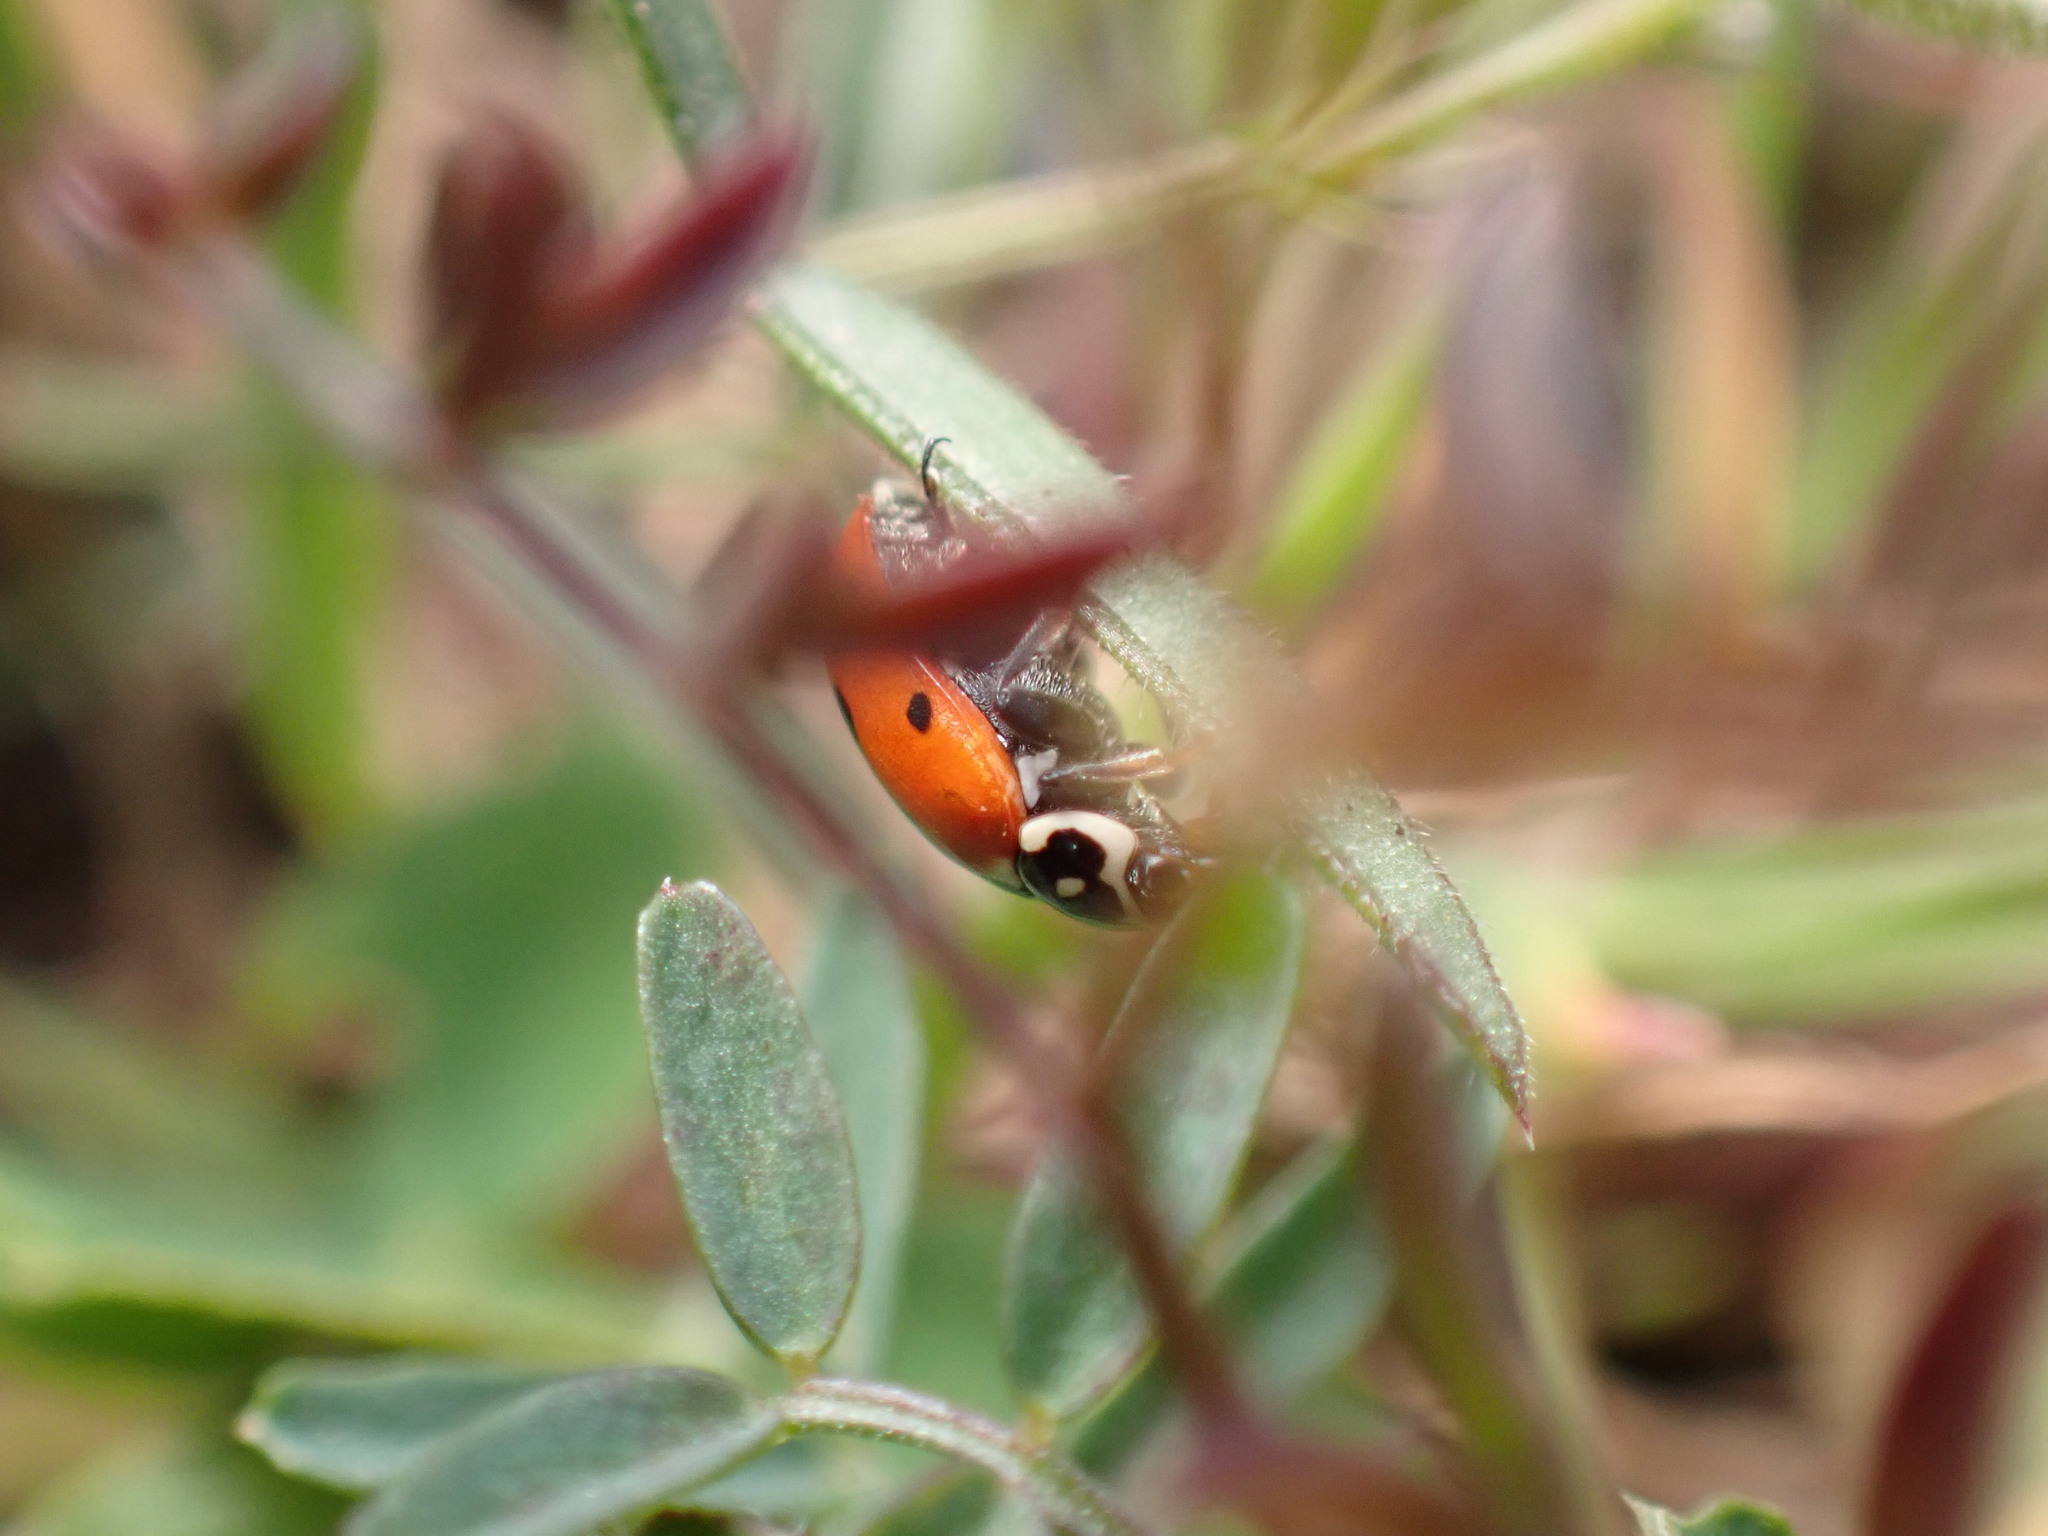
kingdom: Animalia
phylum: Arthropoda
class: Insecta
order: Coleoptera
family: Coccinellidae
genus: Hippodamia
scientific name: Hippodamia variegata
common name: Ladybird beetle
